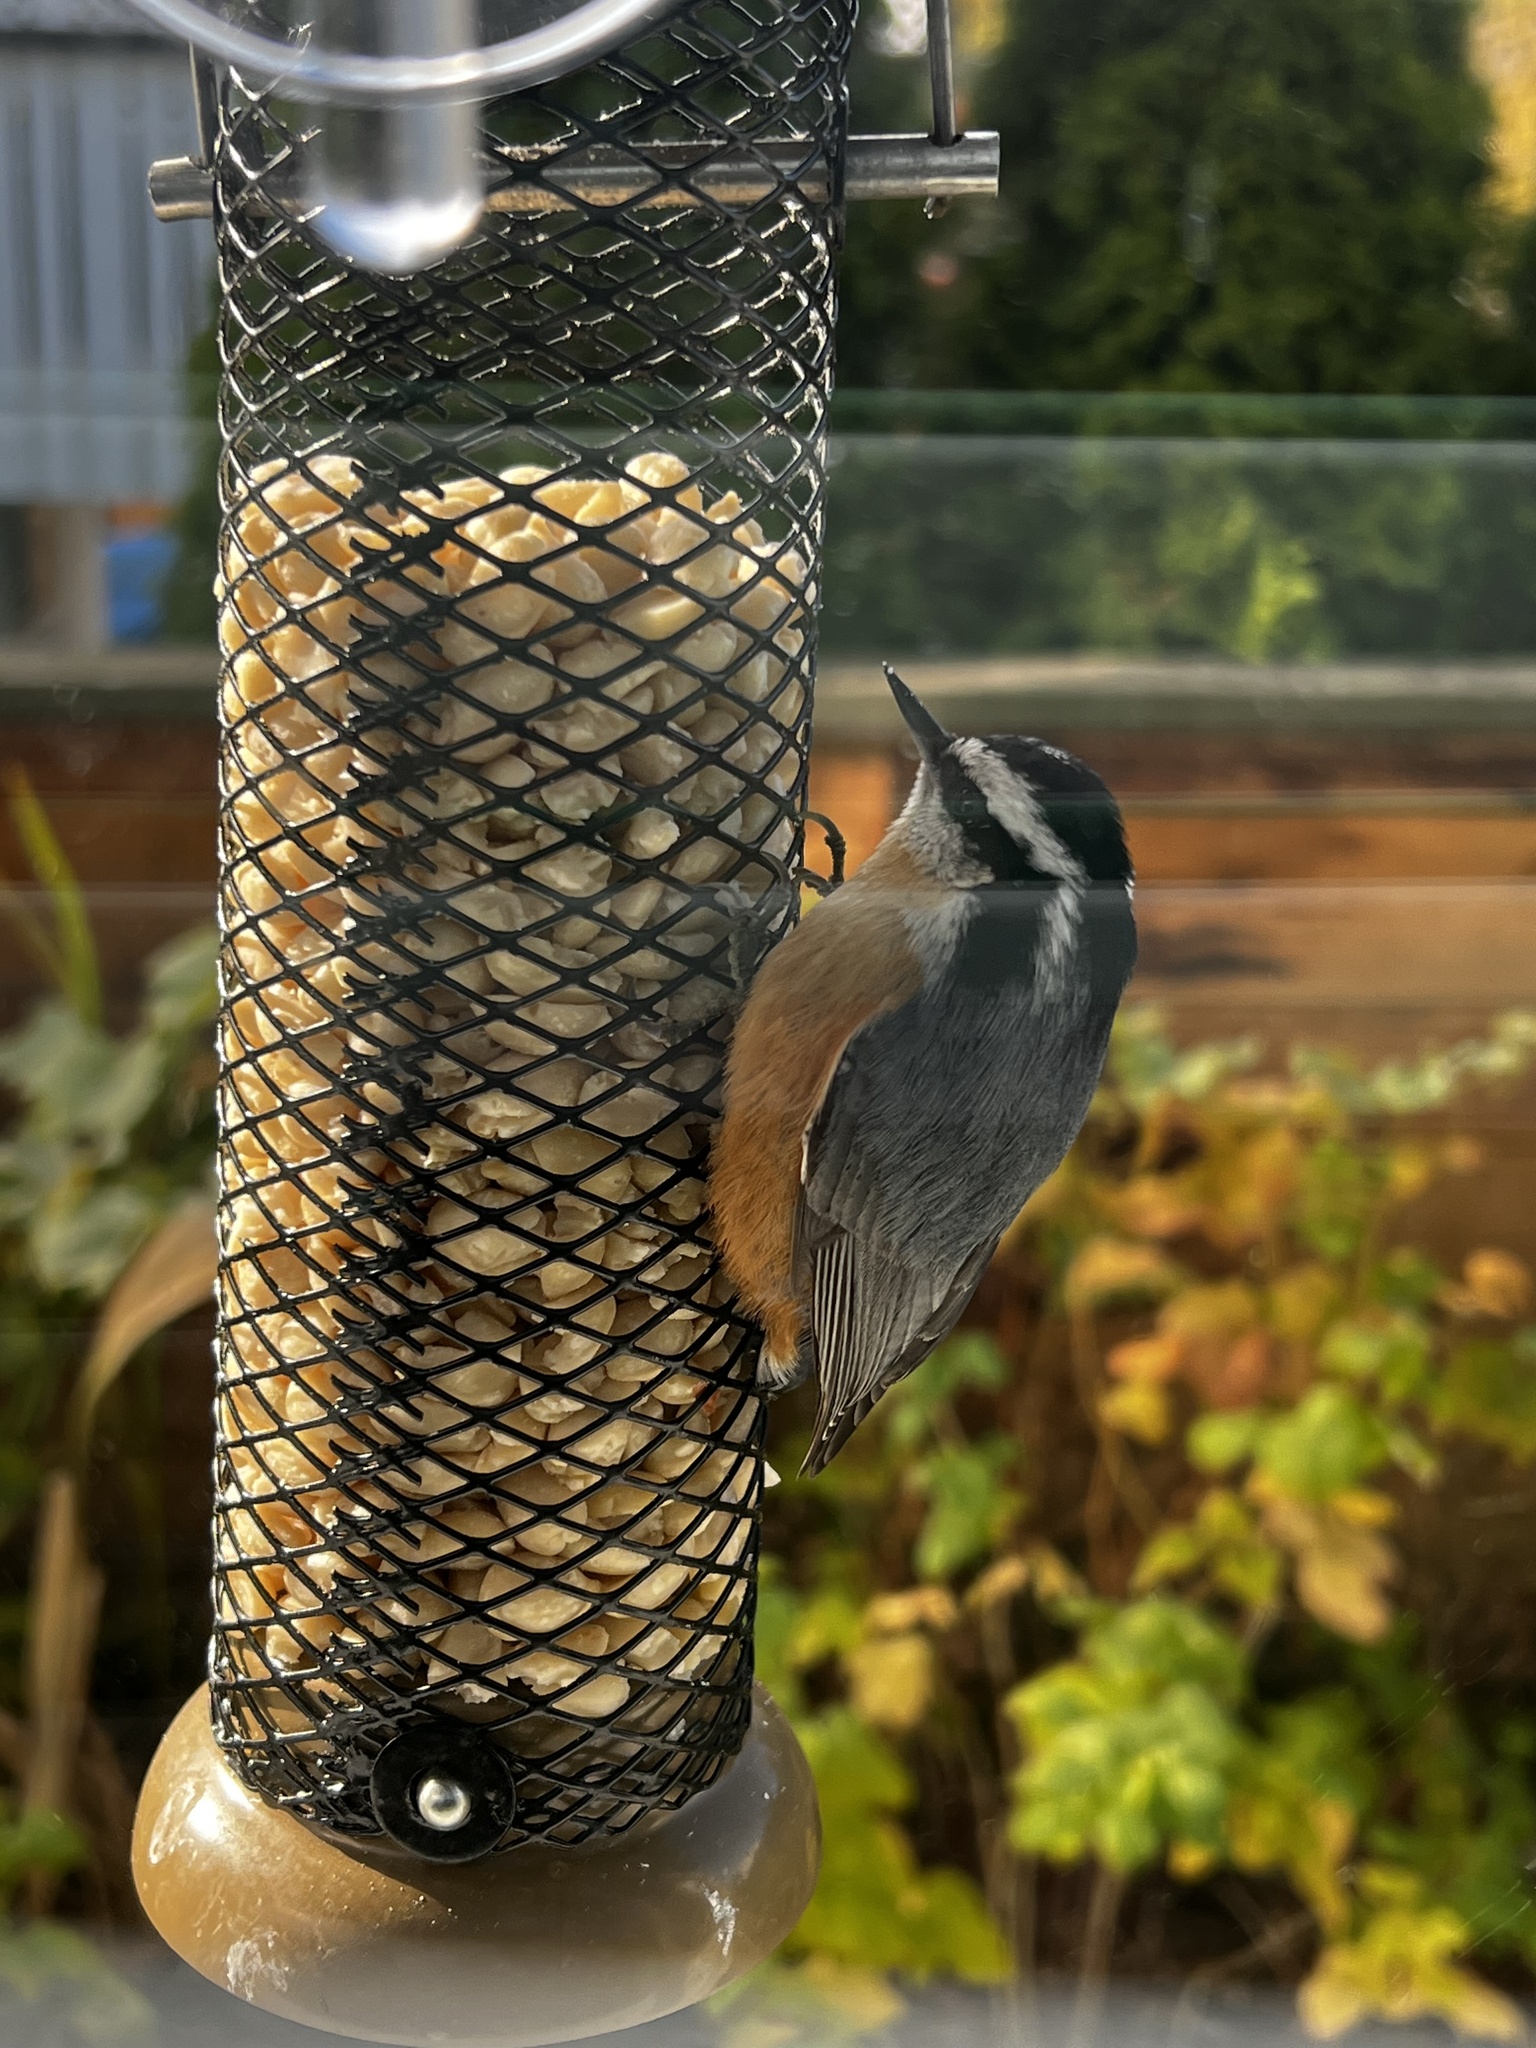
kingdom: Animalia
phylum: Chordata
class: Aves
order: Passeriformes
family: Sittidae
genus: Sitta
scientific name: Sitta canadensis
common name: Red-breasted nuthatch
